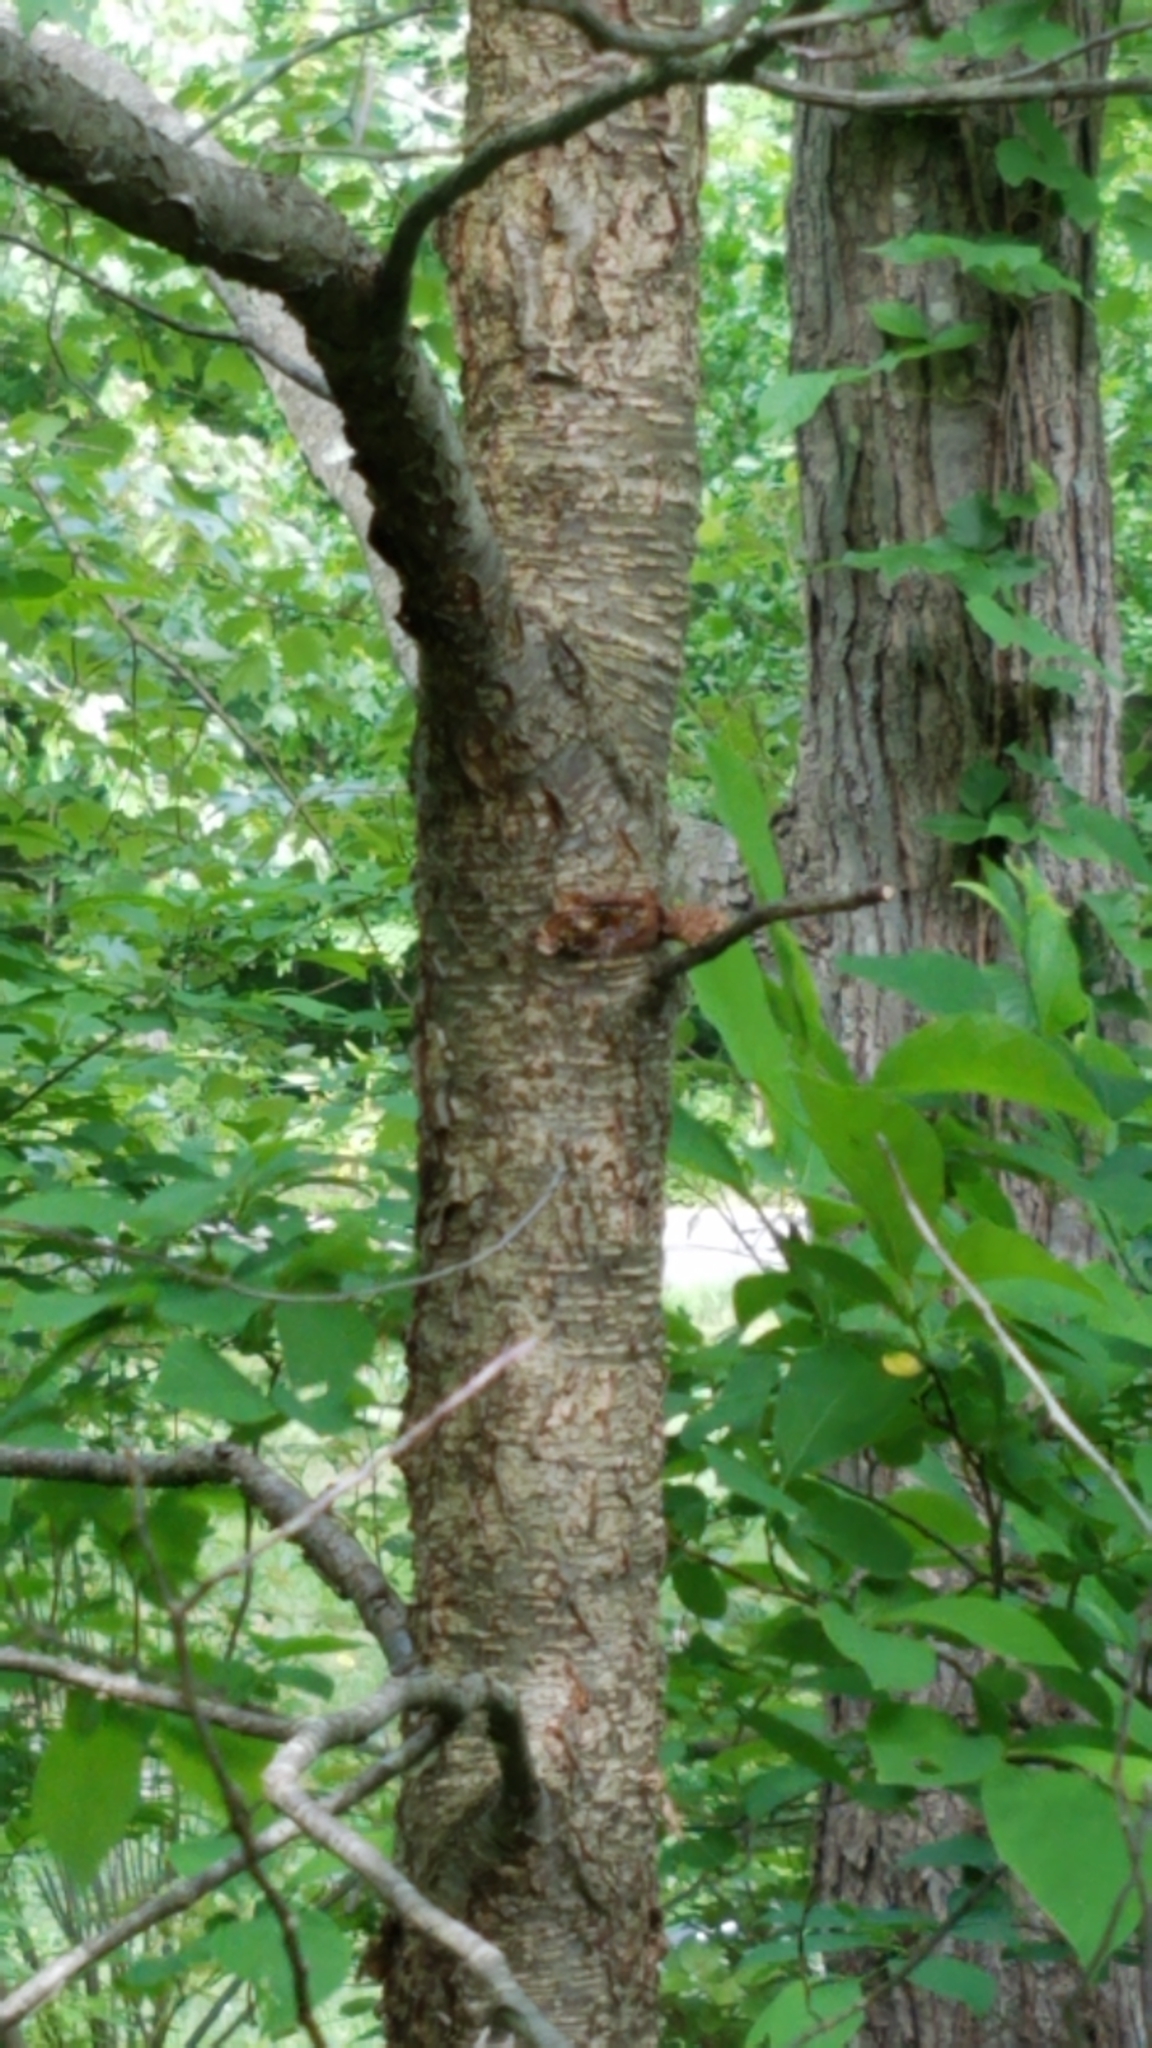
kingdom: Plantae
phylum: Tracheophyta
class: Magnoliopsida
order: Rosales
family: Rosaceae
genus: Prunus
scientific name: Prunus serotina
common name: Black cherry
